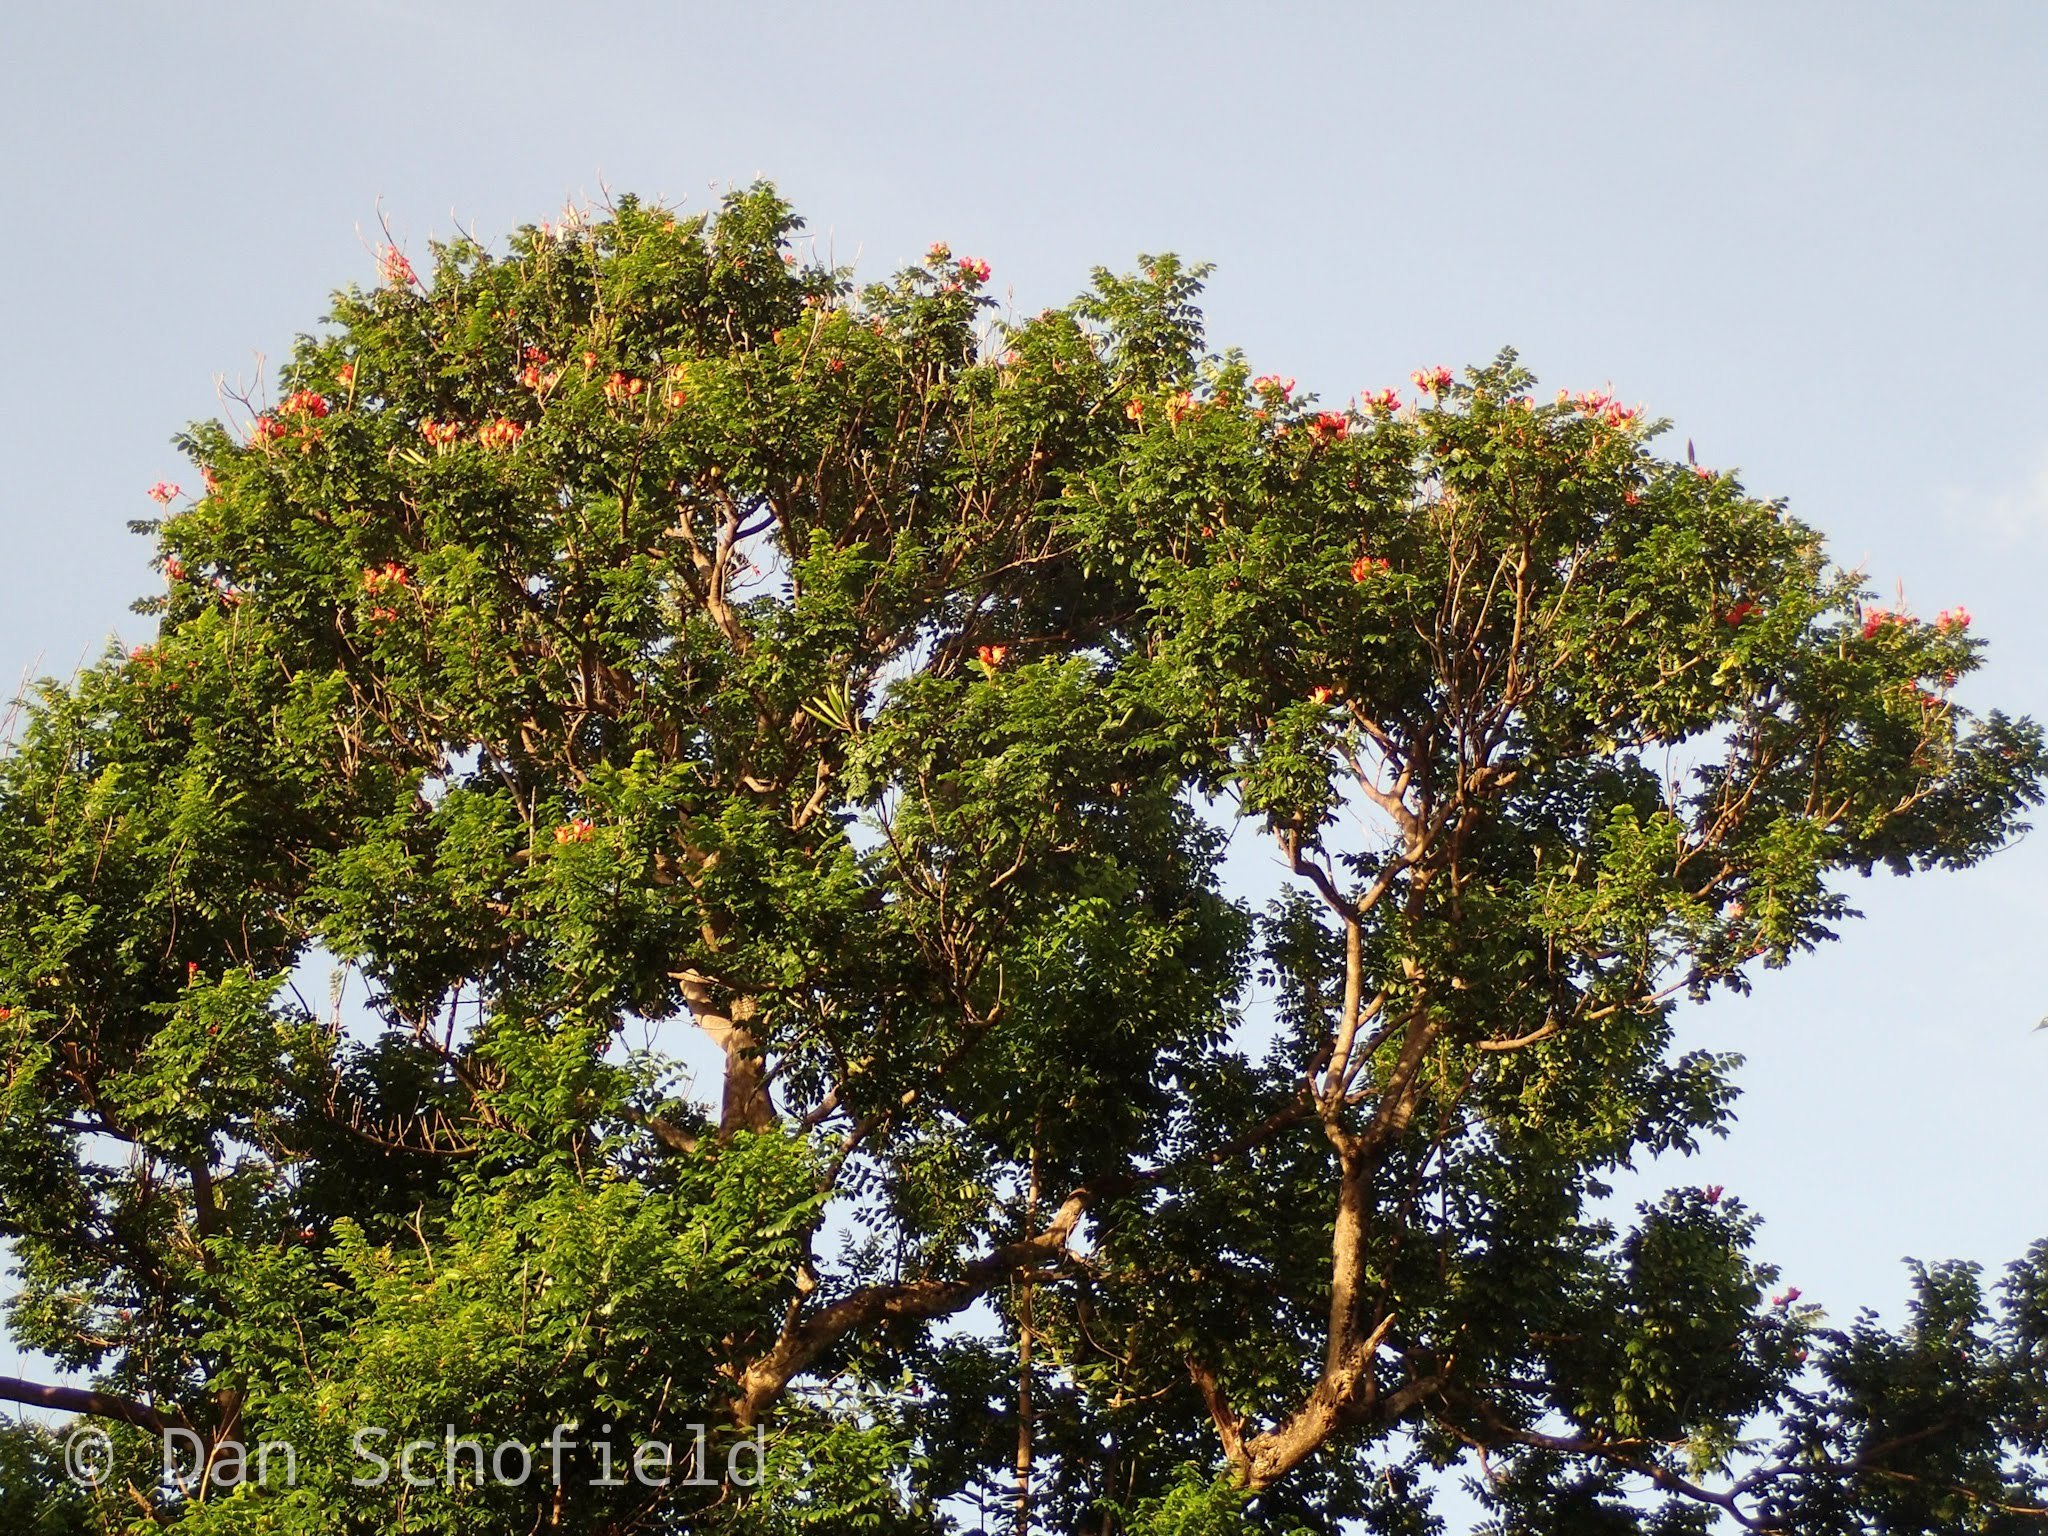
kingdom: Plantae
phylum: Tracheophyta
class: Magnoliopsida
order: Lamiales
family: Bignoniaceae
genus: Spathodea
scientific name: Spathodea campanulata
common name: African tuliptree
